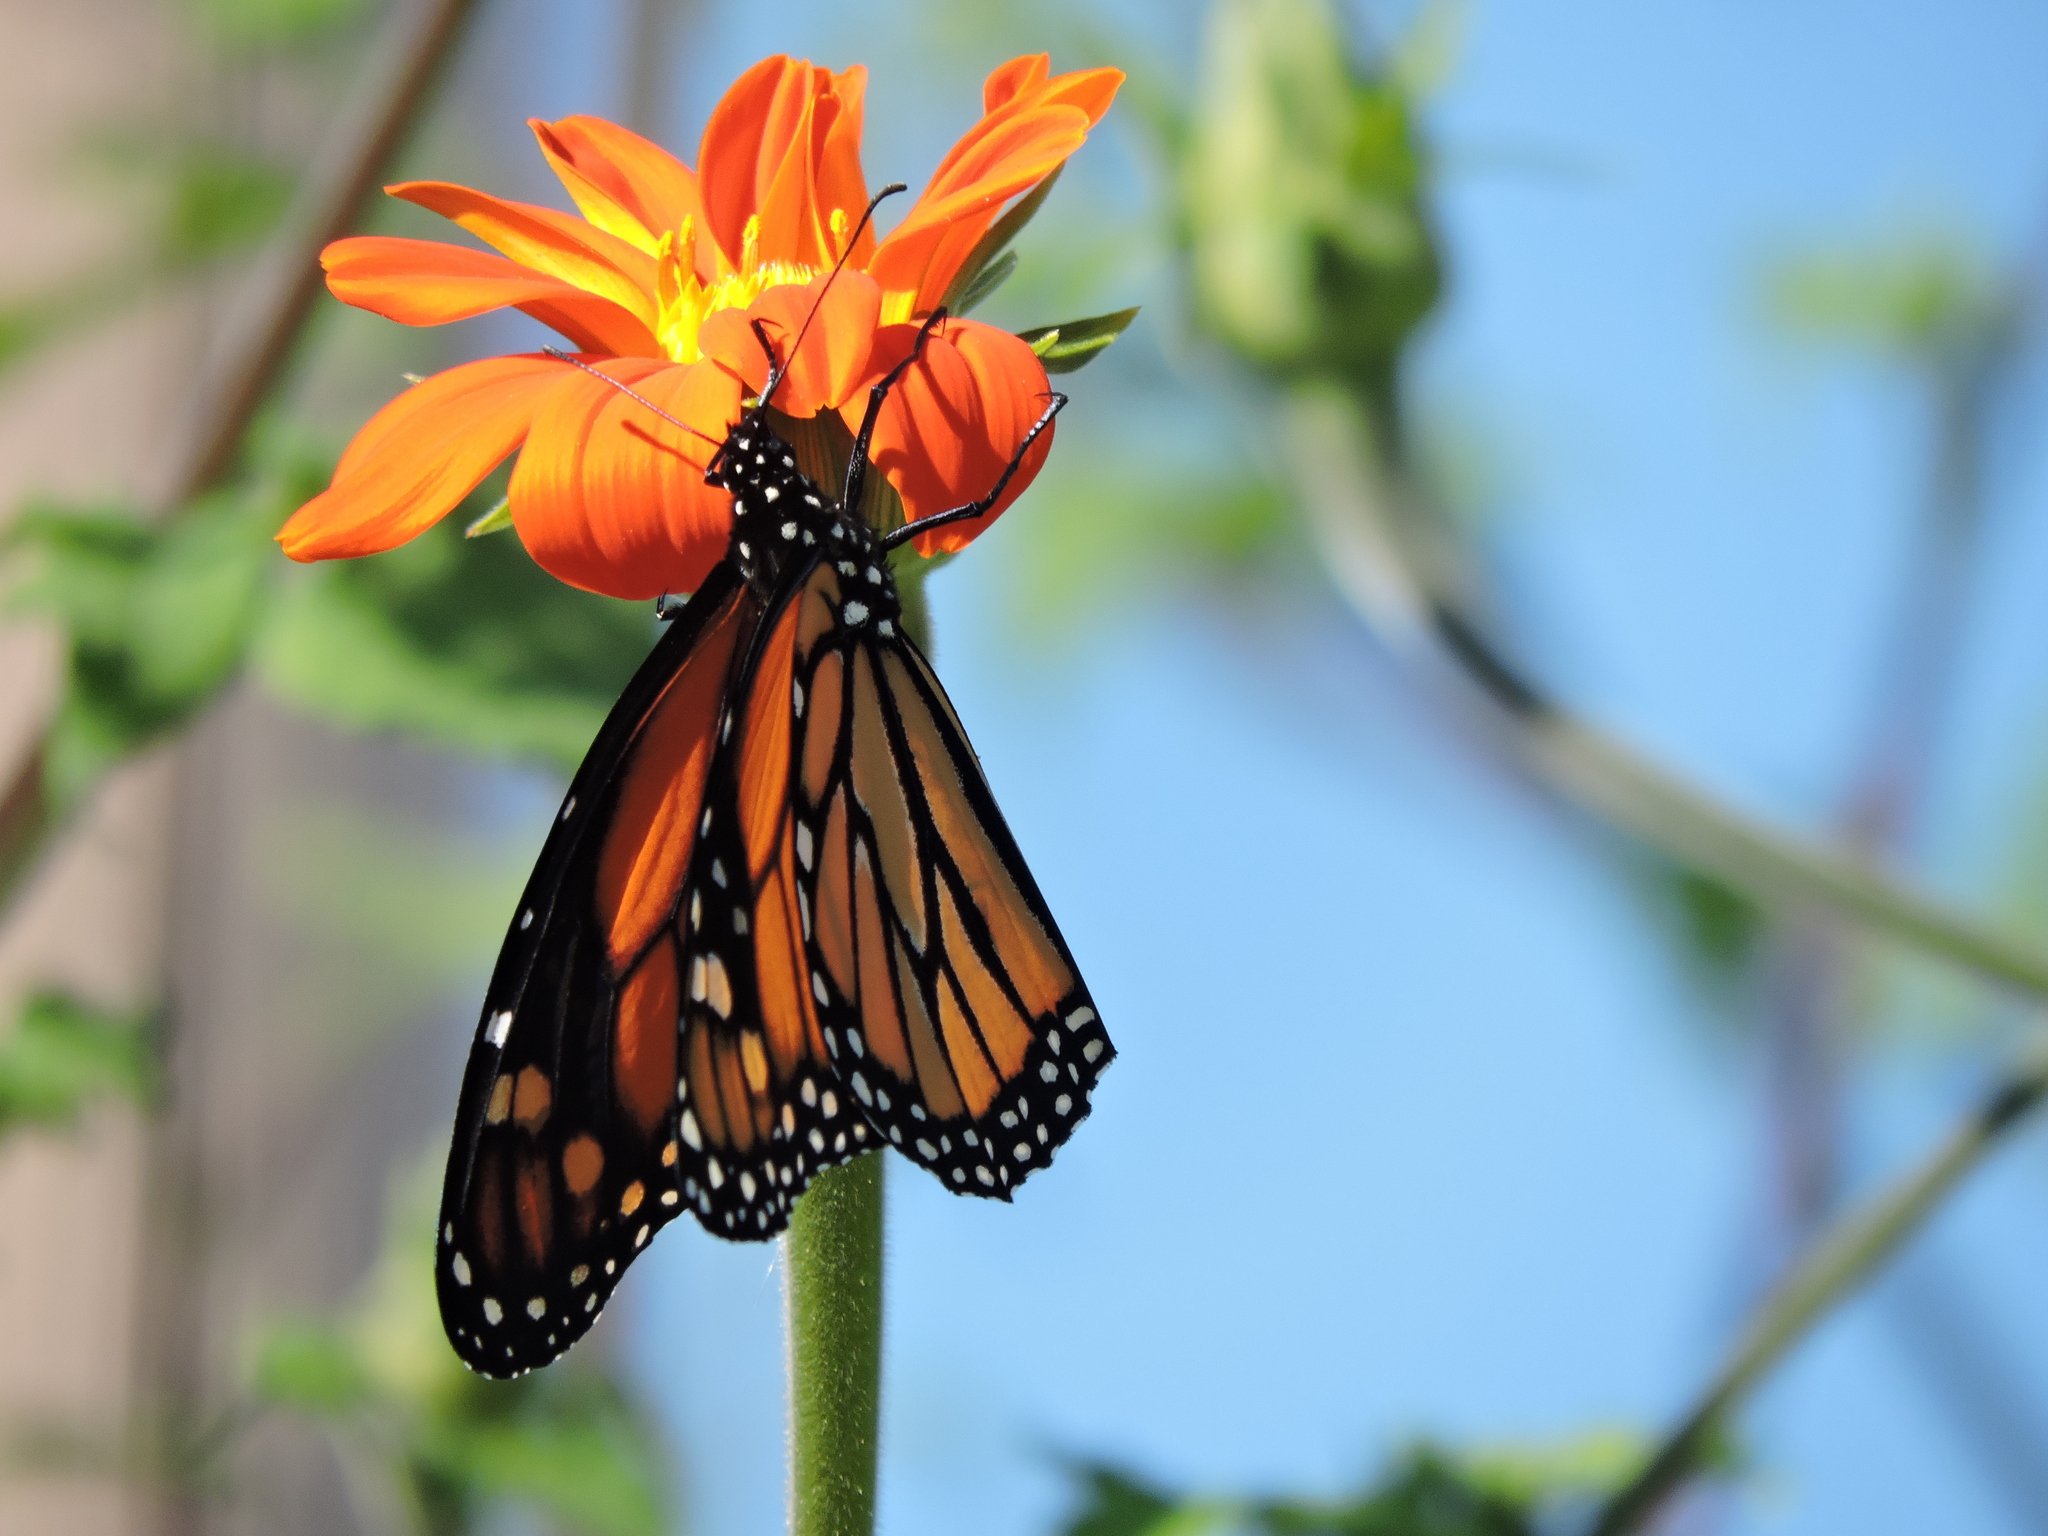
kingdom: Animalia
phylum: Arthropoda
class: Insecta
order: Lepidoptera
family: Nymphalidae
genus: Danaus
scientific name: Danaus plexippus
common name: Monarch
